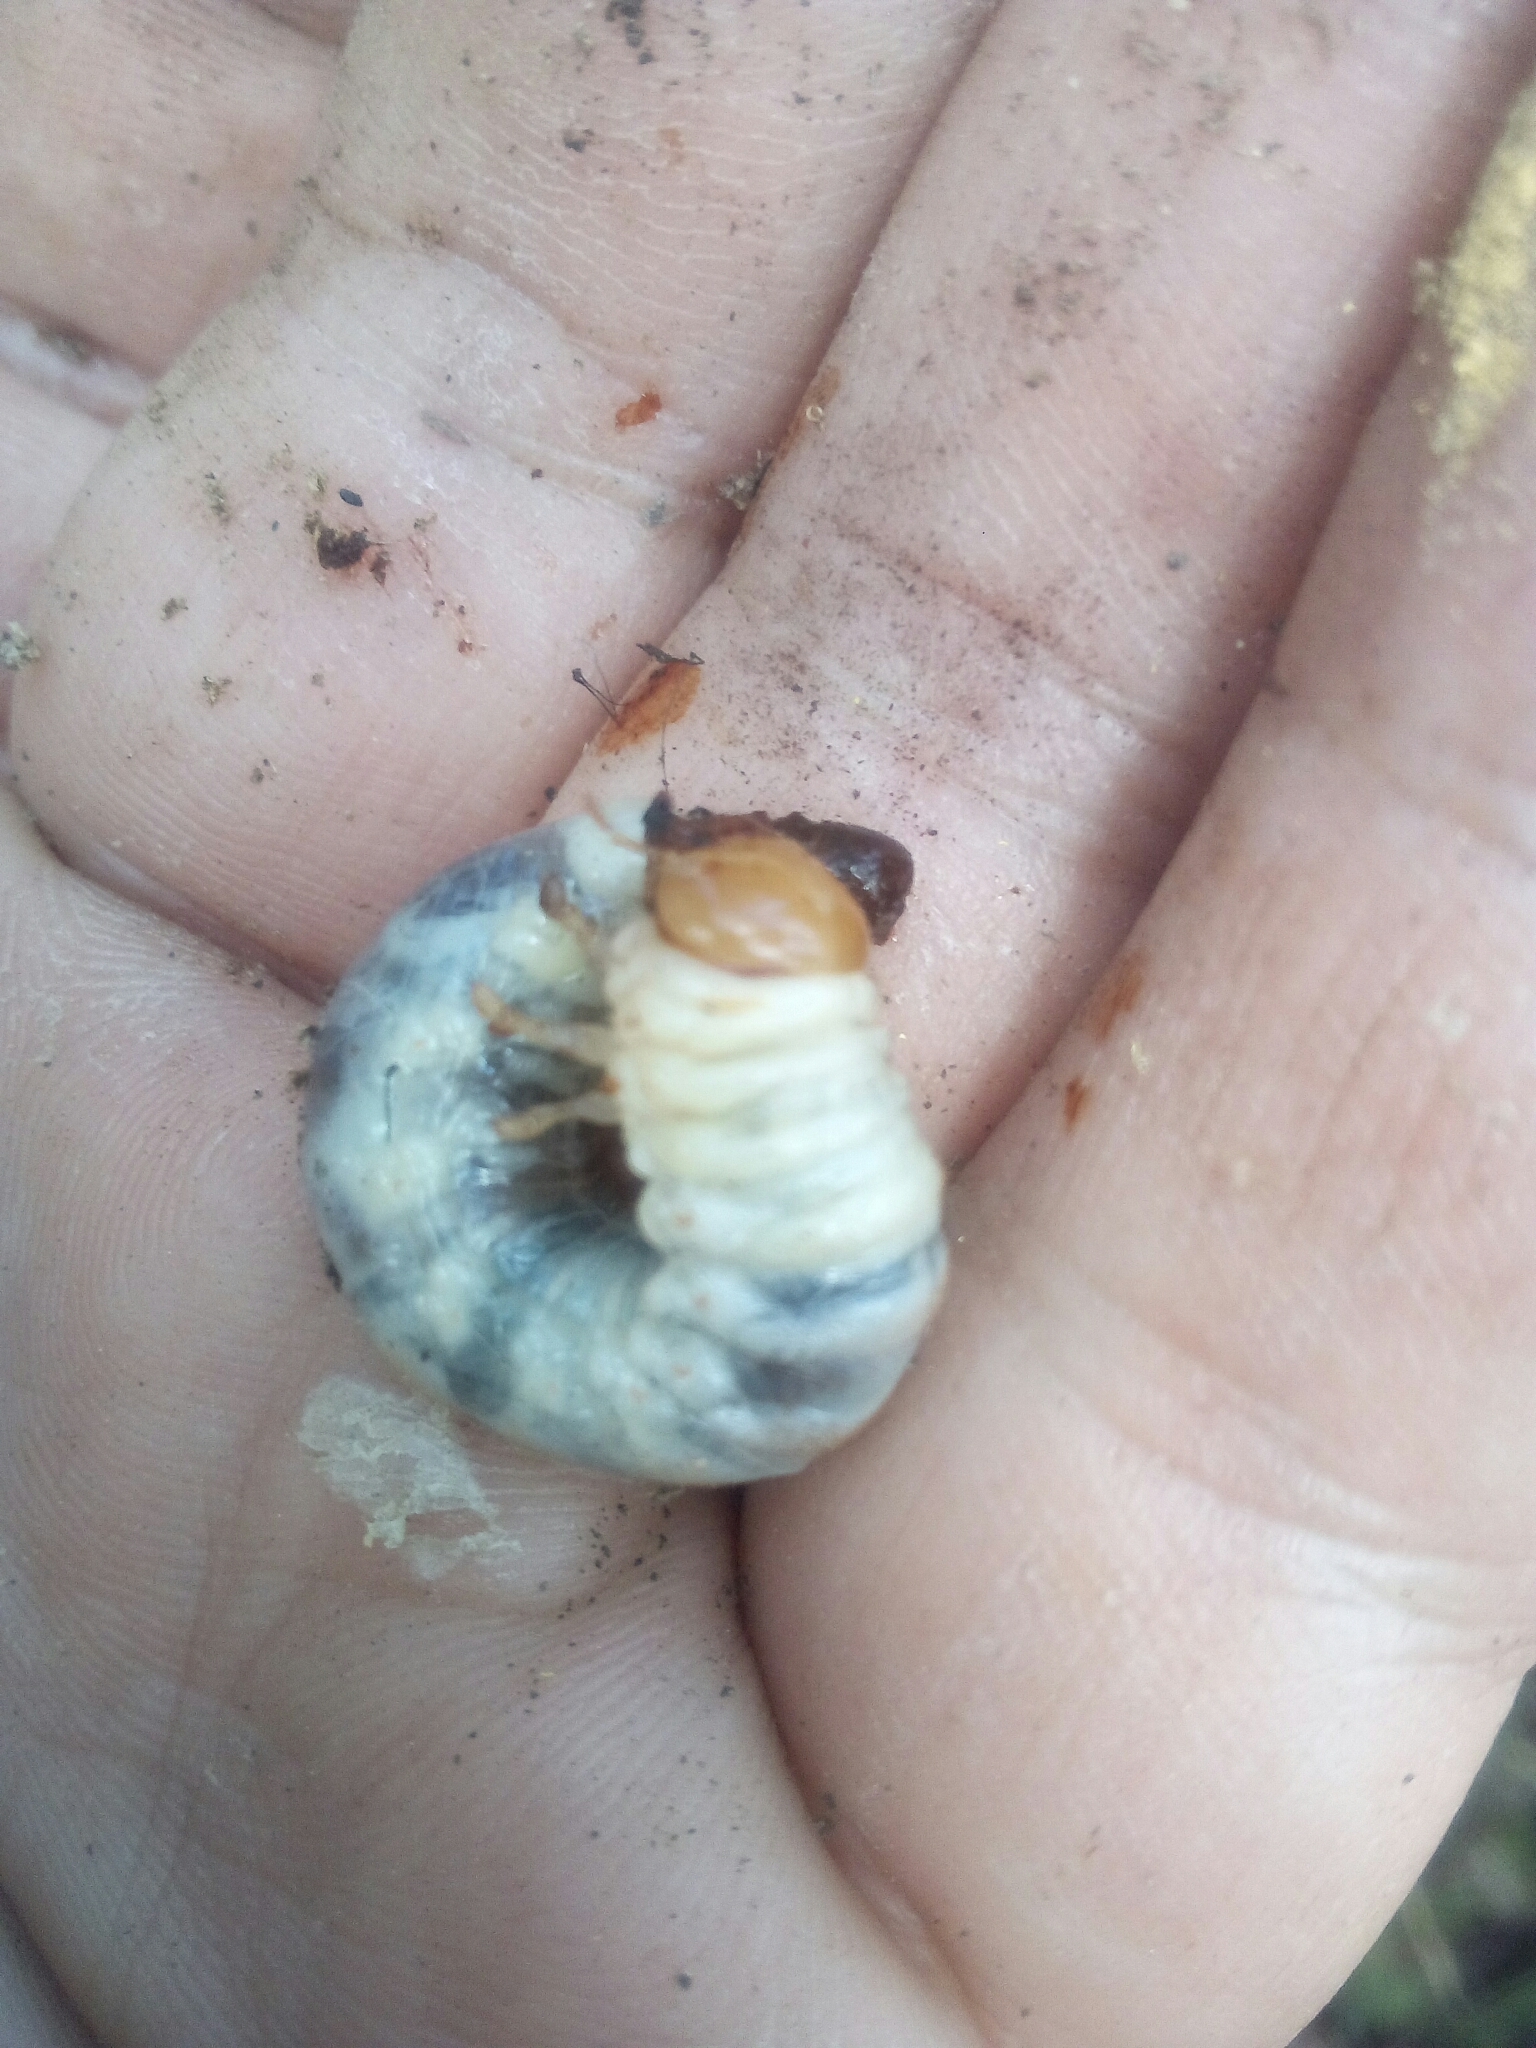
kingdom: Animalia
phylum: Arthropoda
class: Insecta
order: Coleoptera
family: Lucanidae
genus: Dorcus
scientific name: Dorcus parallelipipedus
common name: Lesser stag beetle
